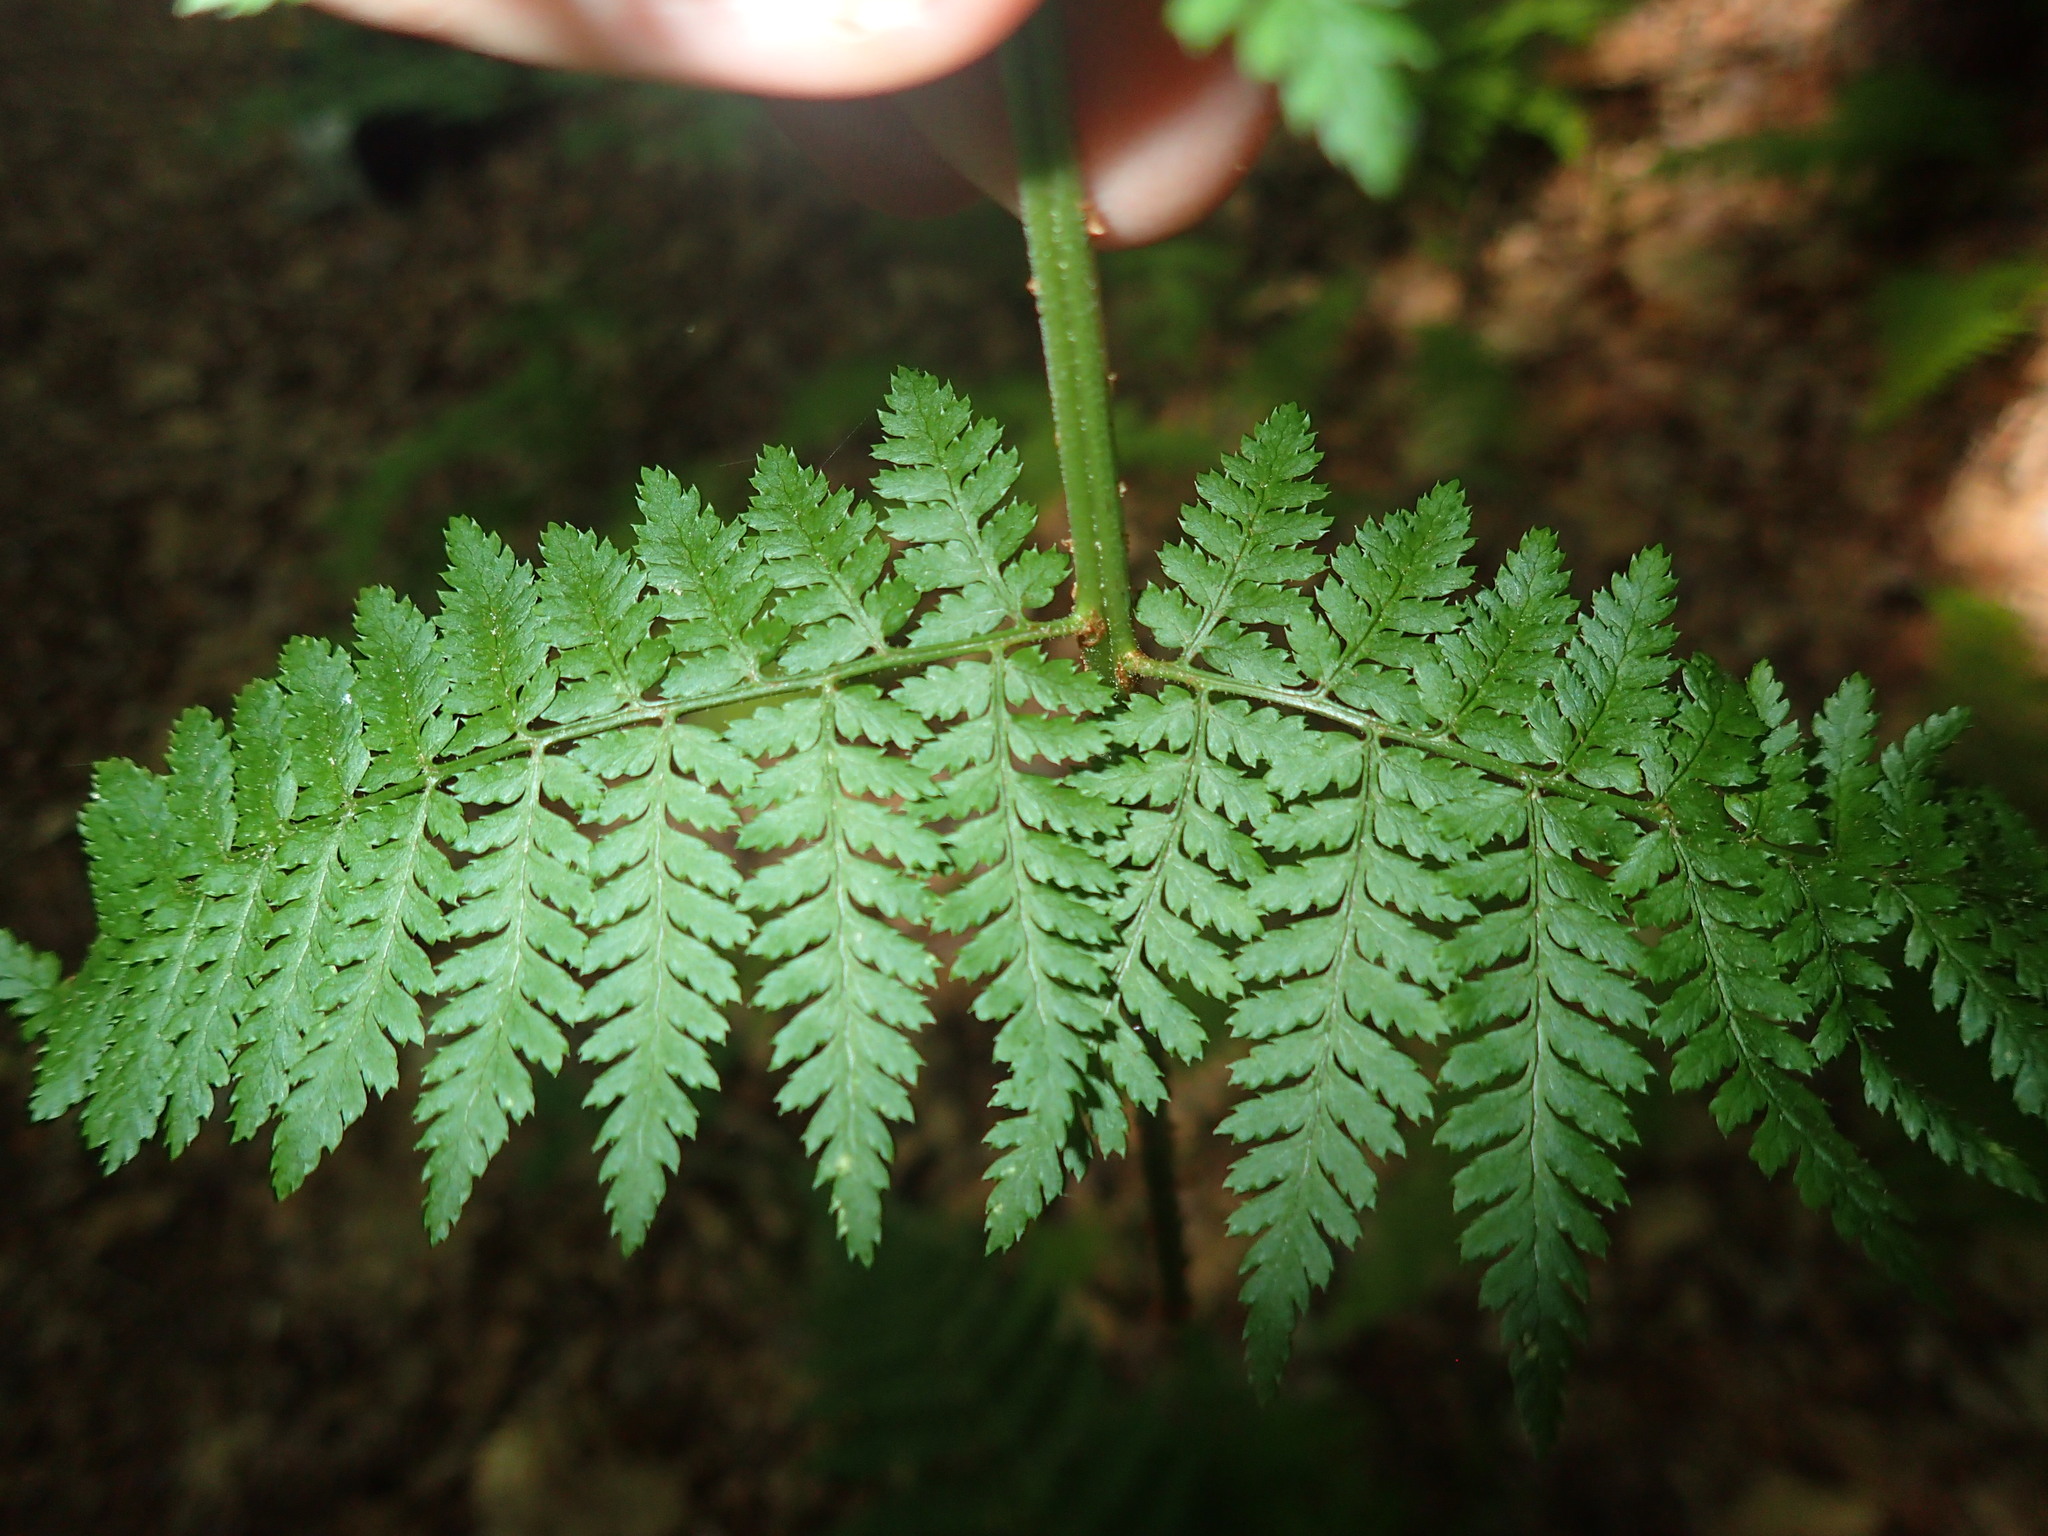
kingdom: Plantae
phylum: Tracheophyta
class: Polypodiopsida
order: Polypodiales
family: Dryopteridaceae
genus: Dryopteris
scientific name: Dryopteris intermedia
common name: Evergreen wood fern
